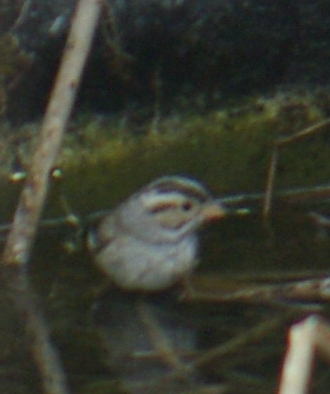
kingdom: Animalia
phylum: Chordata
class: Aves
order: Passeriformes
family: Passerellidae
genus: Spizella
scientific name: Spizella pallida
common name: Clay-colored sparrow
